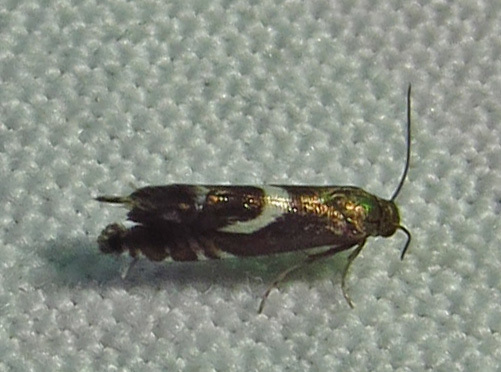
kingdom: Animalia
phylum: Arthropoda
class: Insecta
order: Lepidoptera
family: Glyphipterigidae
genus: Glyphipterix
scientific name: Glyphipterix Diploschizia impigritella
